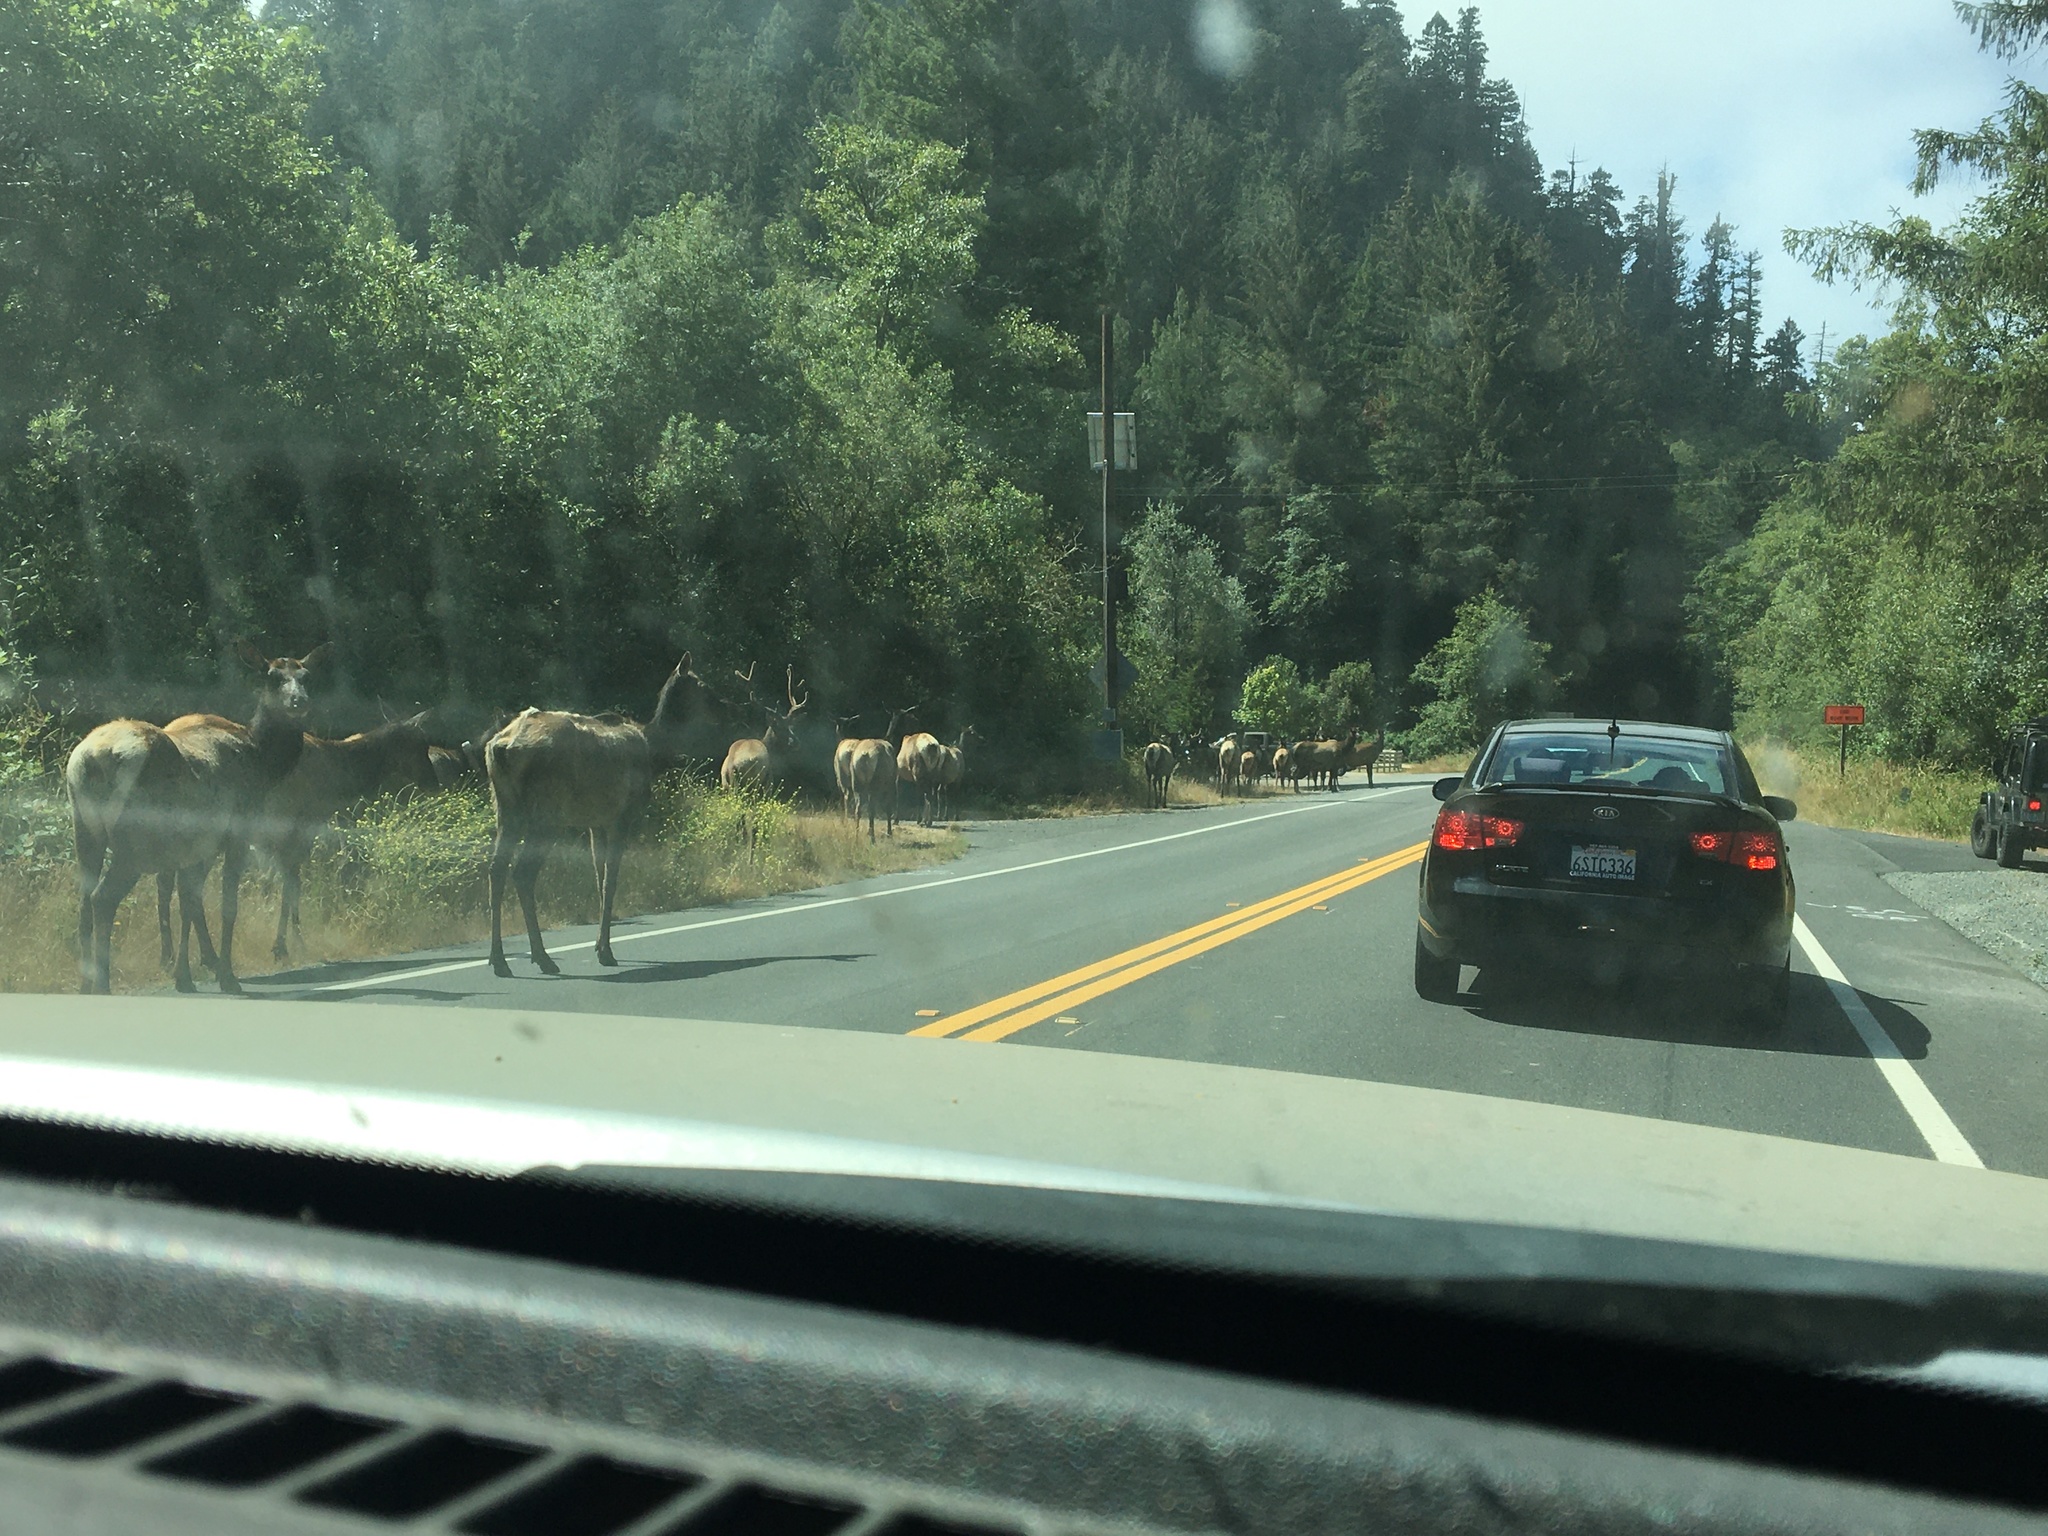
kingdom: Animalia
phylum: Chordata
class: Mammalia
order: Artiodactyla
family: Cervidae
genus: Cervus
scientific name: Cervus elaphus
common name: Red deer
